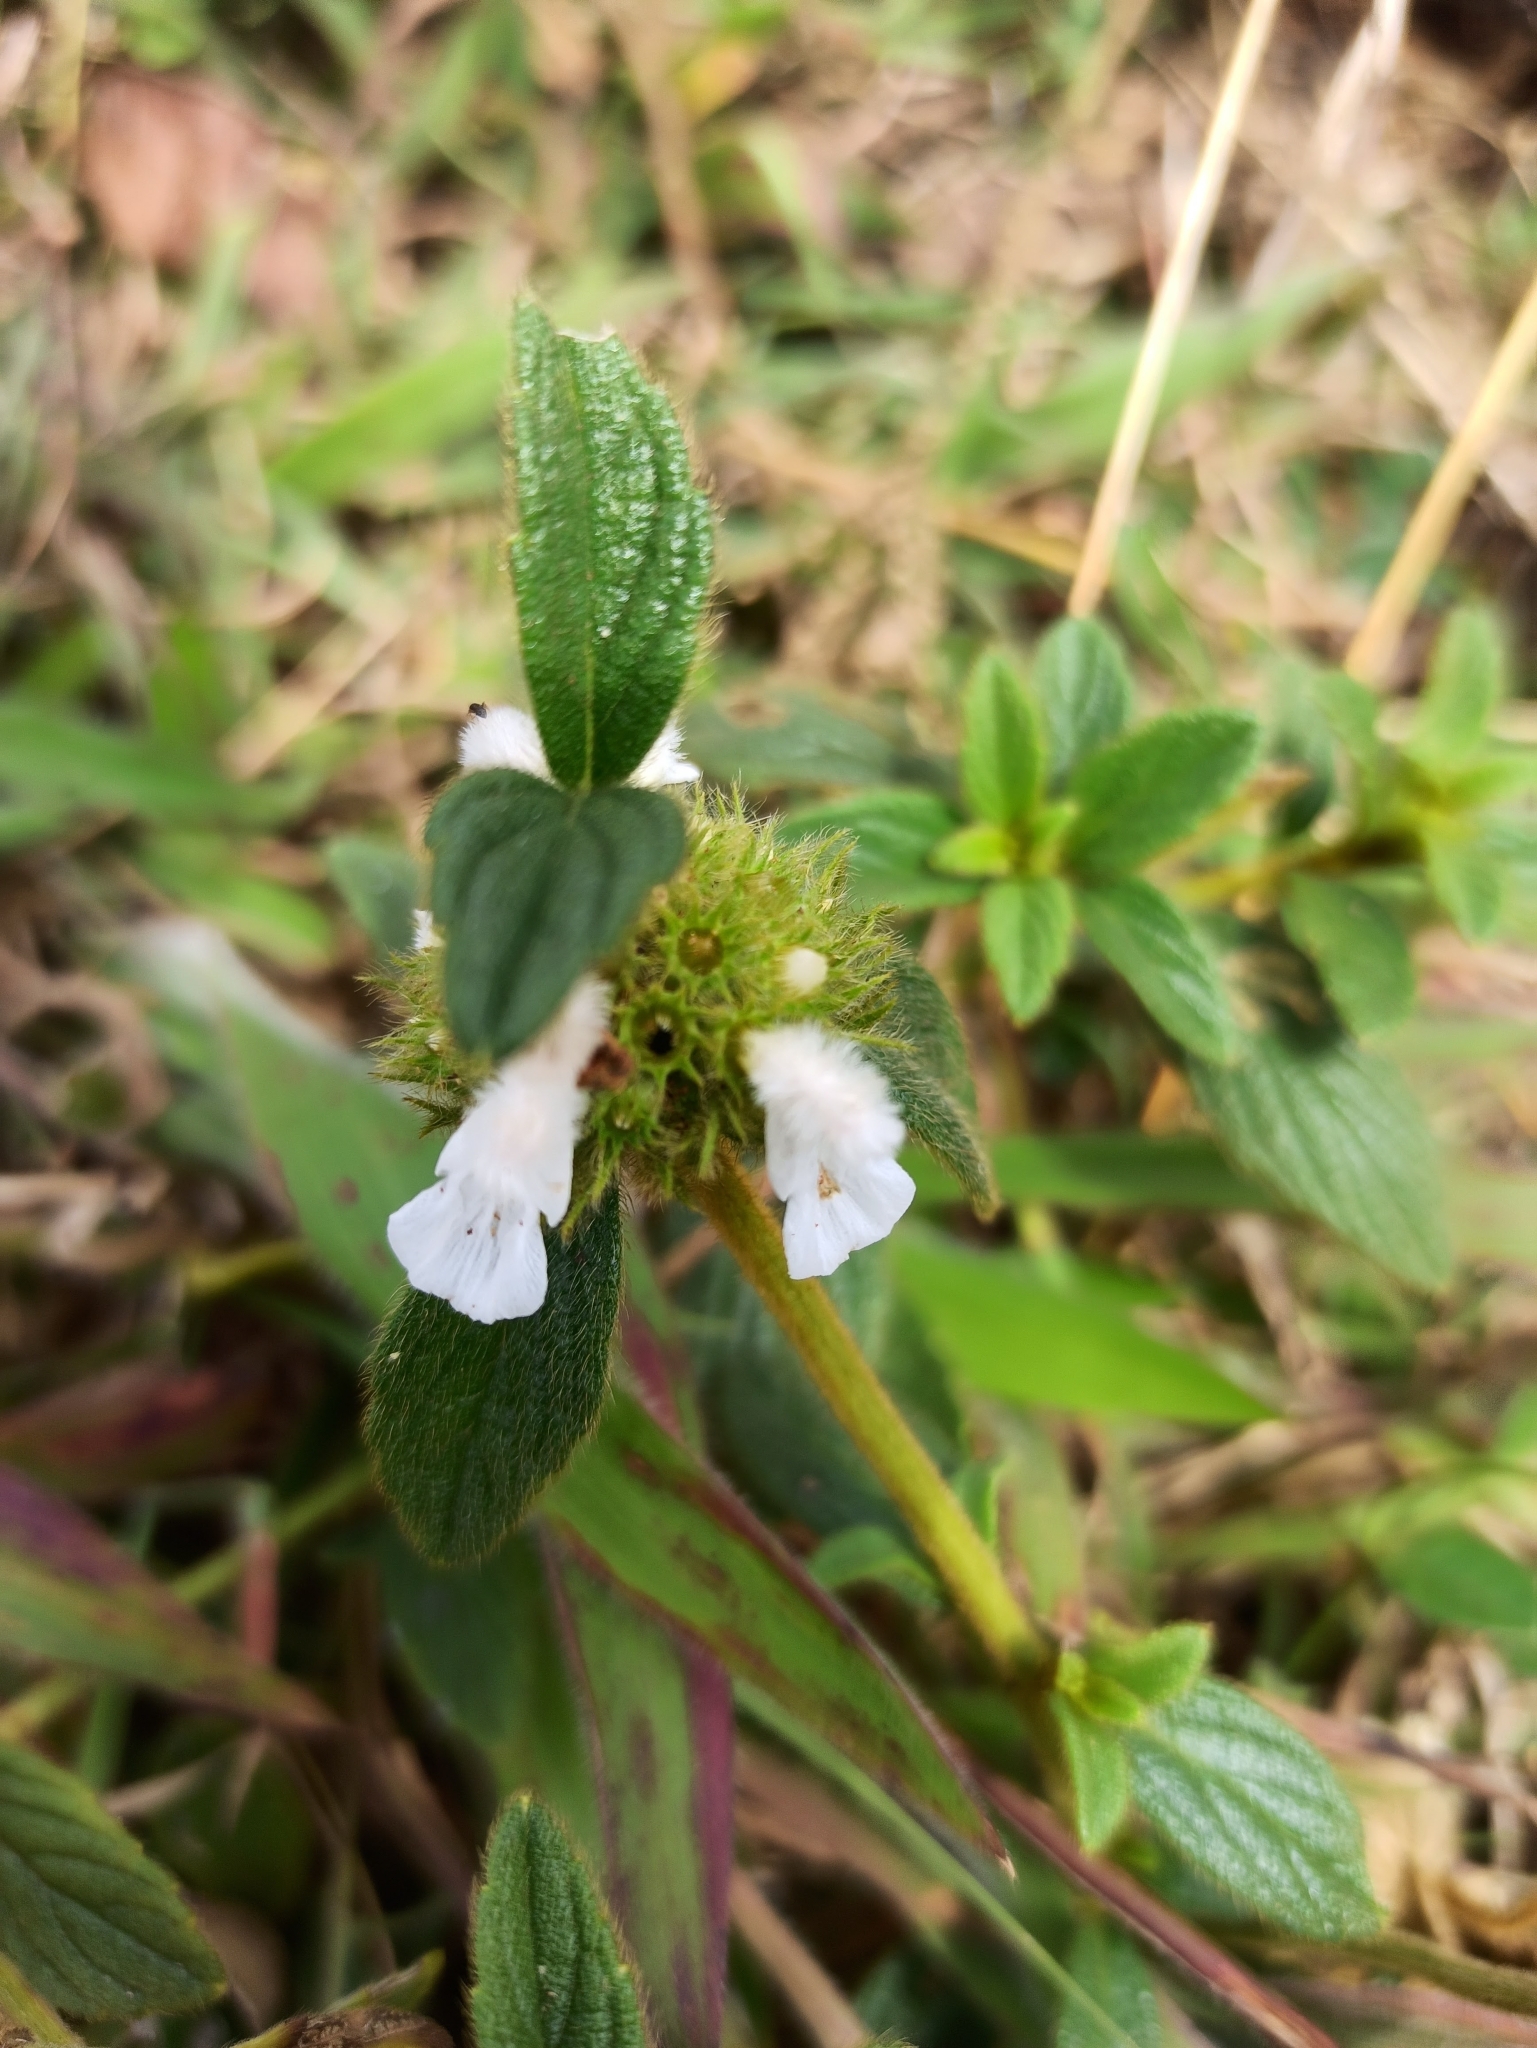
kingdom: Plantae
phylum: Tracheophyta
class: Magnoliopsida
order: Lamiales
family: Lamiaceae
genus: Leucas
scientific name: Leucas aspera
